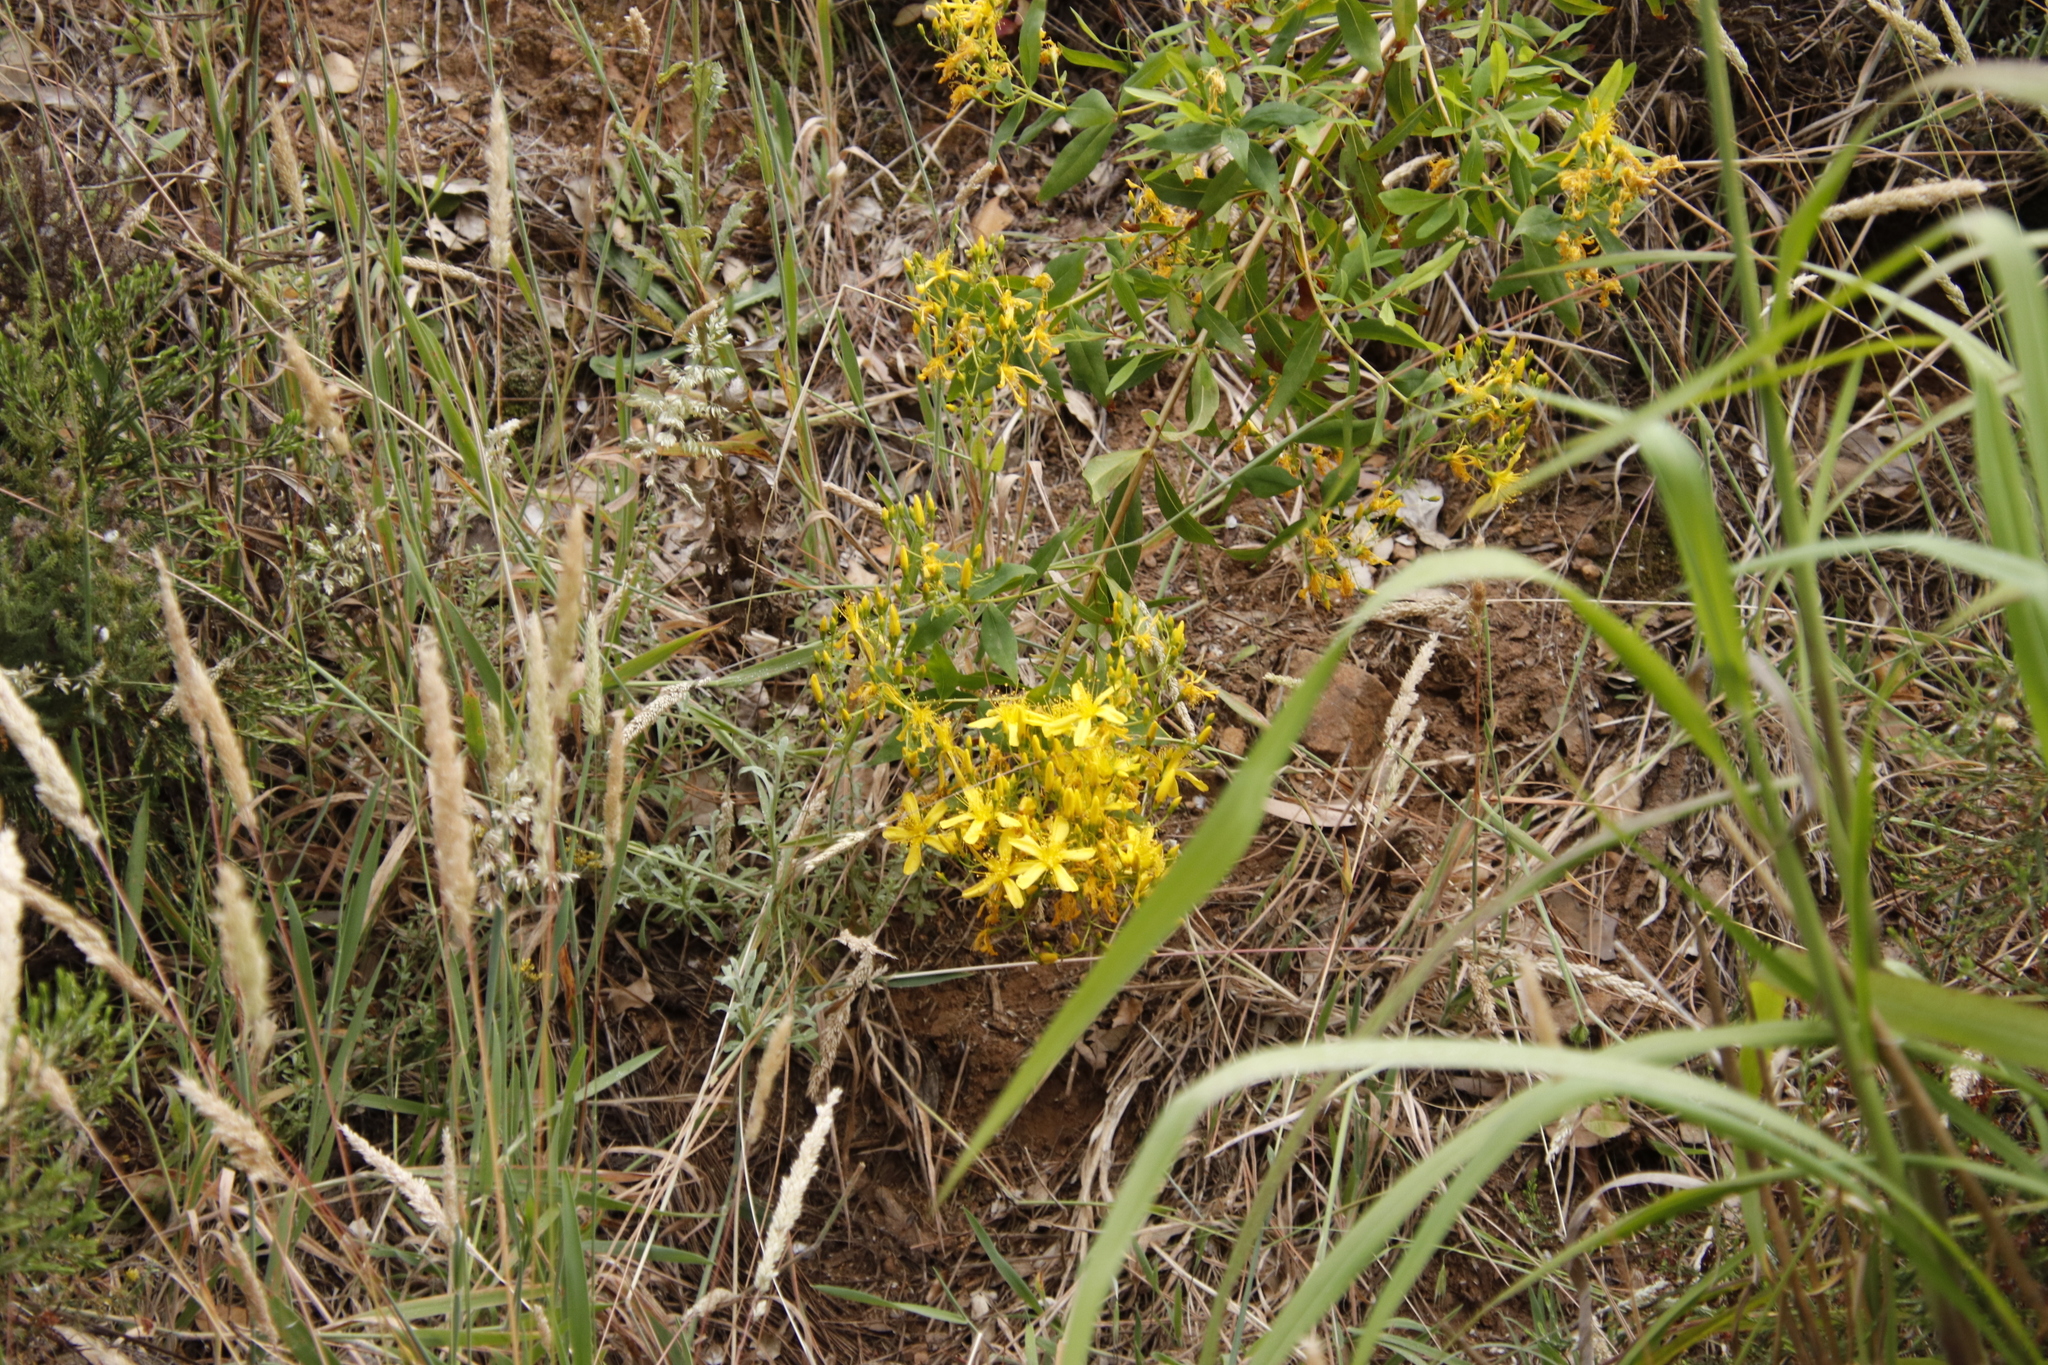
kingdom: Plantae
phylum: Tracheophyta
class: Magnoliopsida
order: Malpighiales
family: Hypericaceae
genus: Hypericum
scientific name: Hypericum canariense
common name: Canary island st. johnswort
